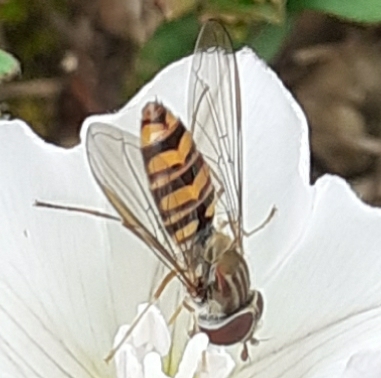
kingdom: Animalia
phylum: Arthropoda
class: Insecta
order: Diptera
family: Syrphidae
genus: Episyrphus
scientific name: Episyrphus balteatus
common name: Marmalade hoverfly
